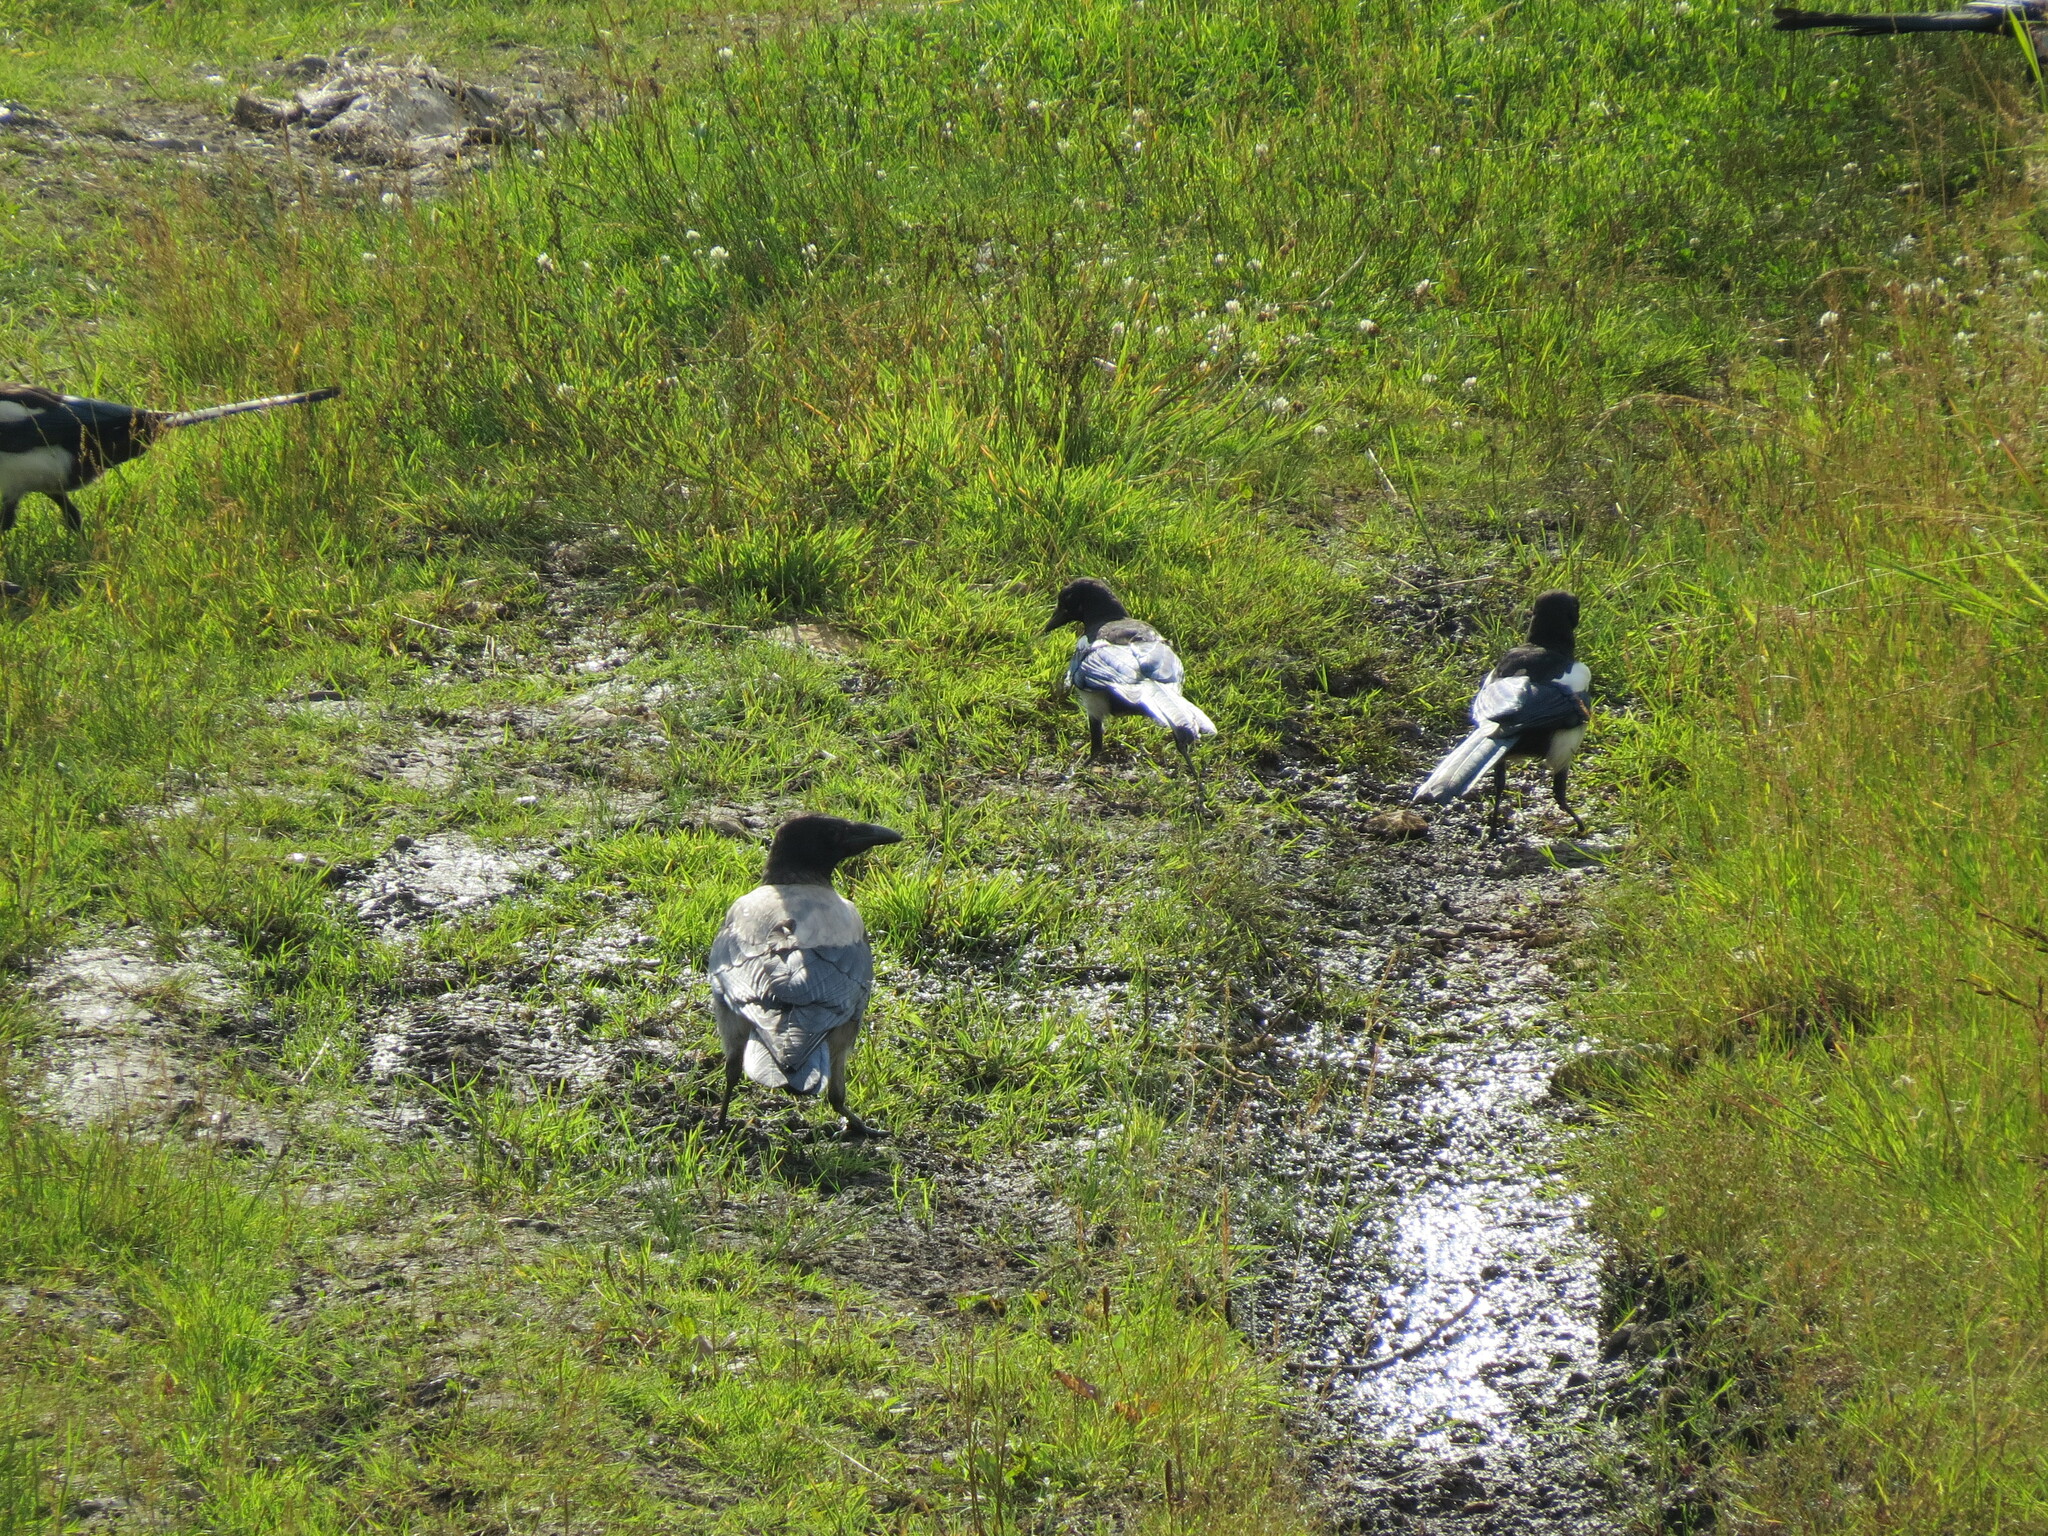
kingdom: Animalia
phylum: Chordata
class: Aves
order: Passeriformes
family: Corvidae
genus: Pica
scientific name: Pica pica
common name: Eurasian magpie
